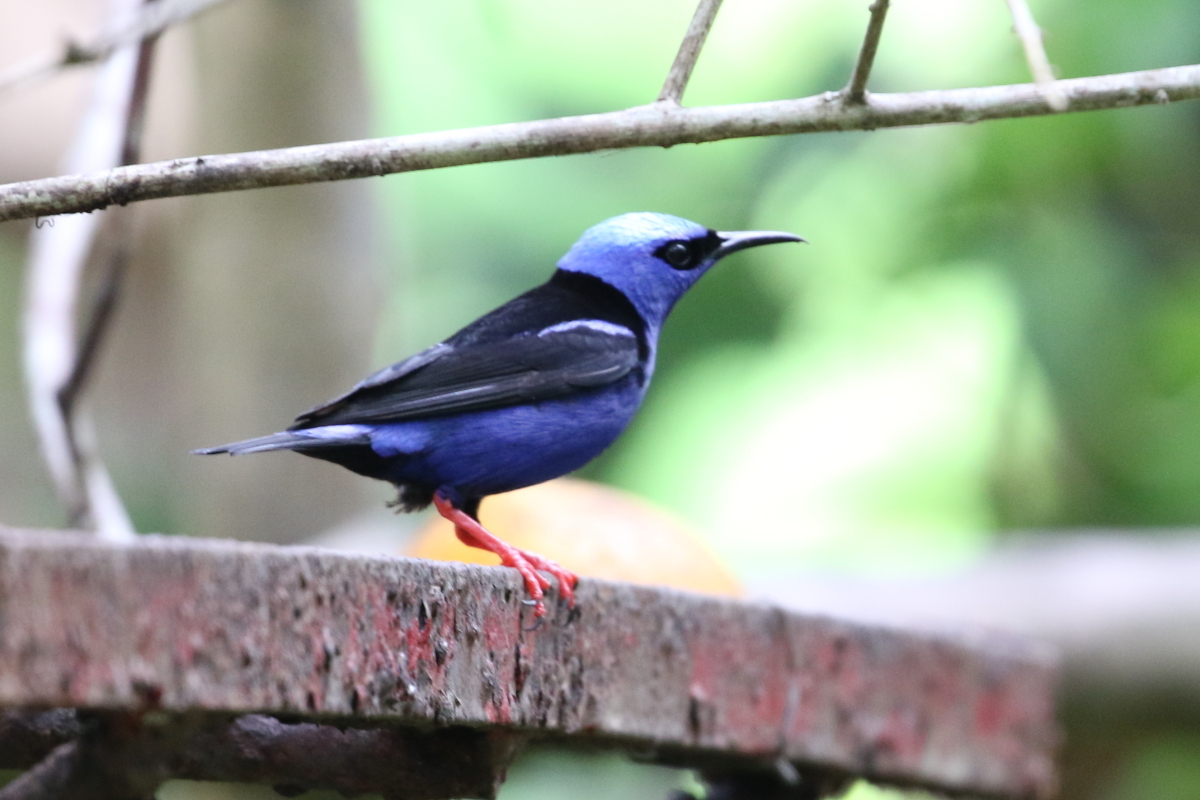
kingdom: Animalia
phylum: Chordata
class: Aves
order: Passeriformes
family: Thraupidae
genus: Cyanerpes
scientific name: Cyanerpes cyaneus
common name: Red-legged honeycreeper
